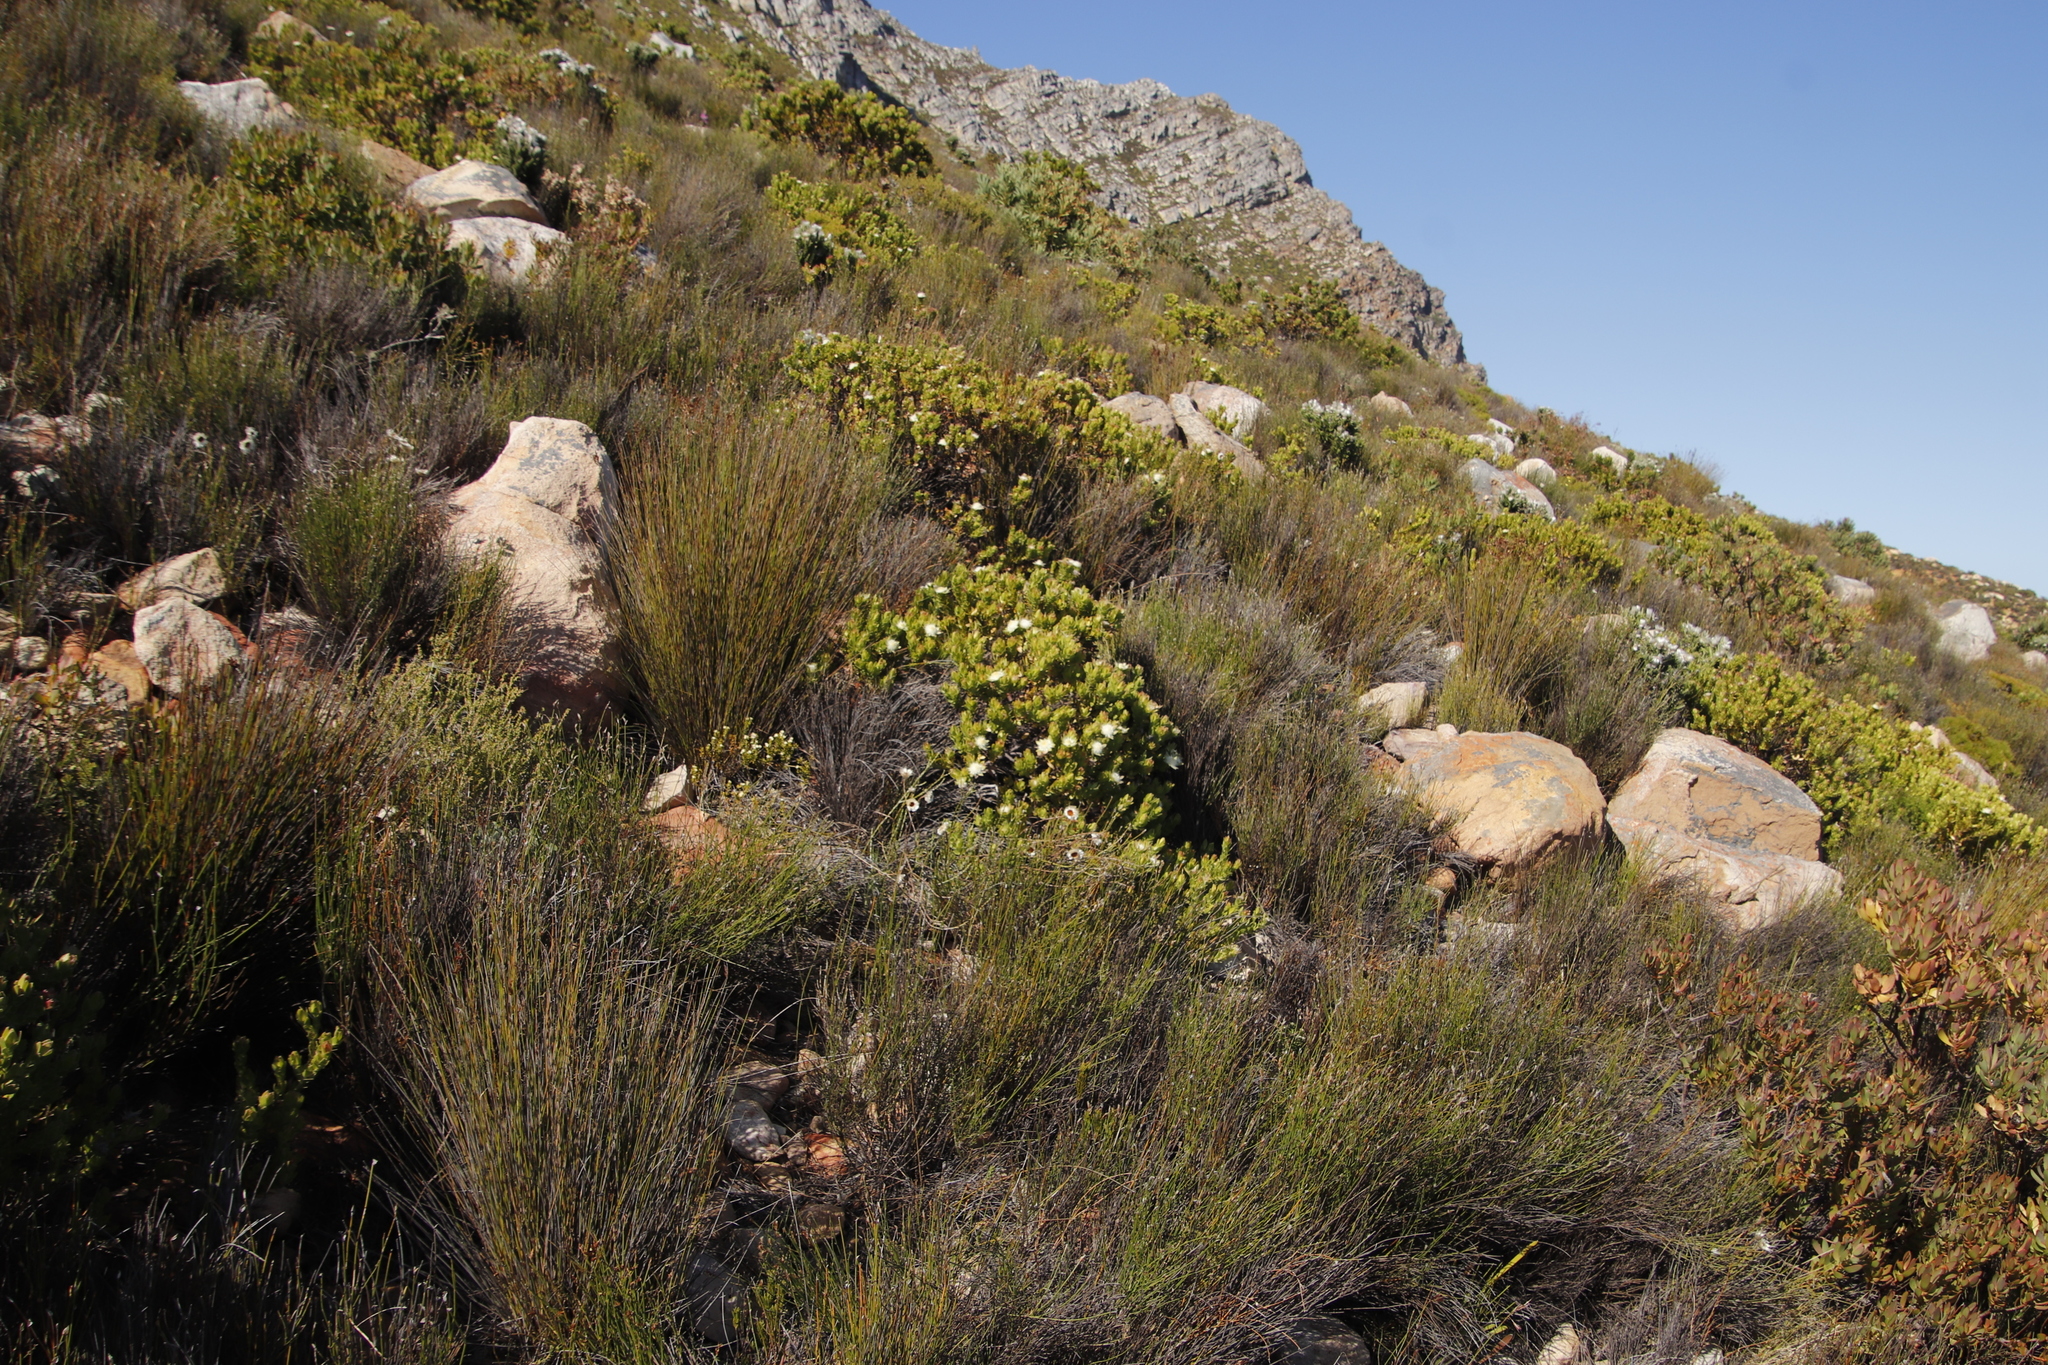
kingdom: Plantae
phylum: Tracheophyta
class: Magnoliopsida
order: Proteales
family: Proteaceae
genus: Diastella
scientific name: Diastella thymelaeoides
